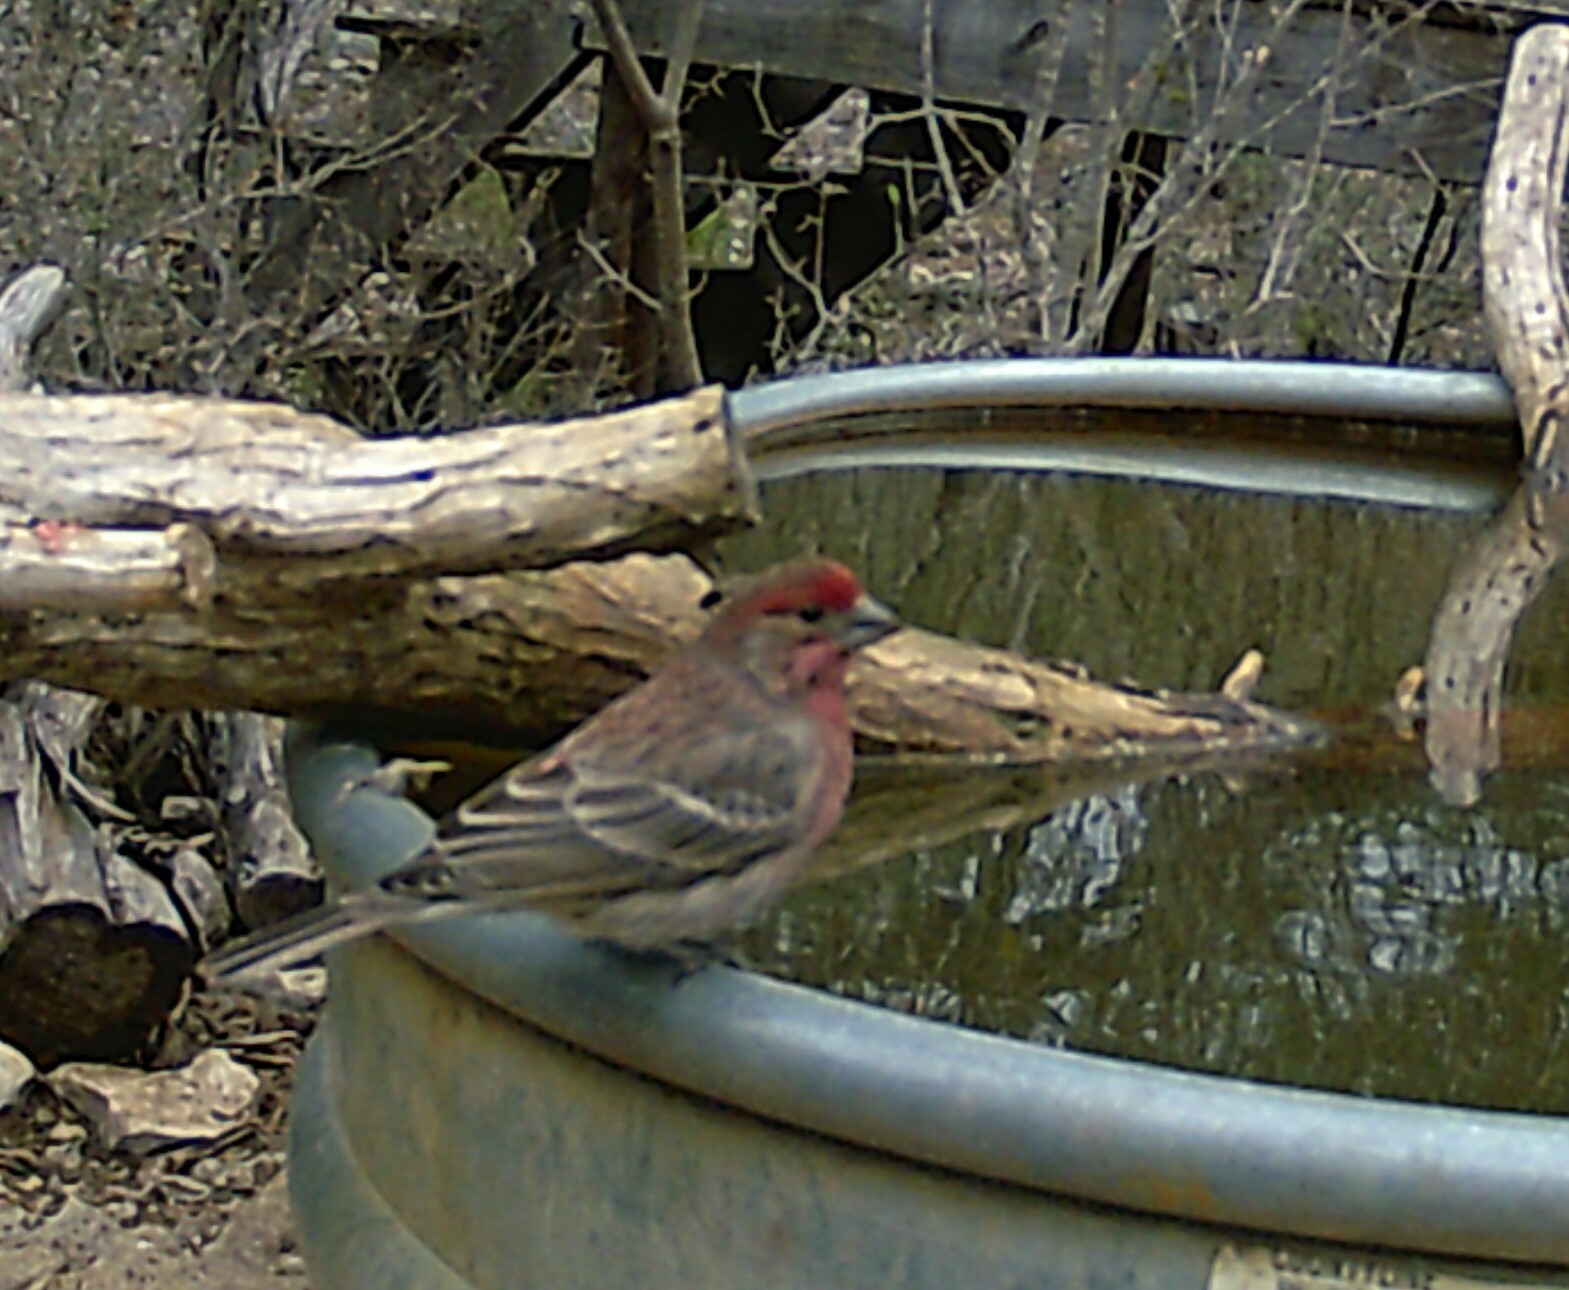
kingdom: Animalia
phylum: Chordata
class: Aves
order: Passeriformes
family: Fringillidae
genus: Haemorhous
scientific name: Haemorhous mexicanus
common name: House finch
